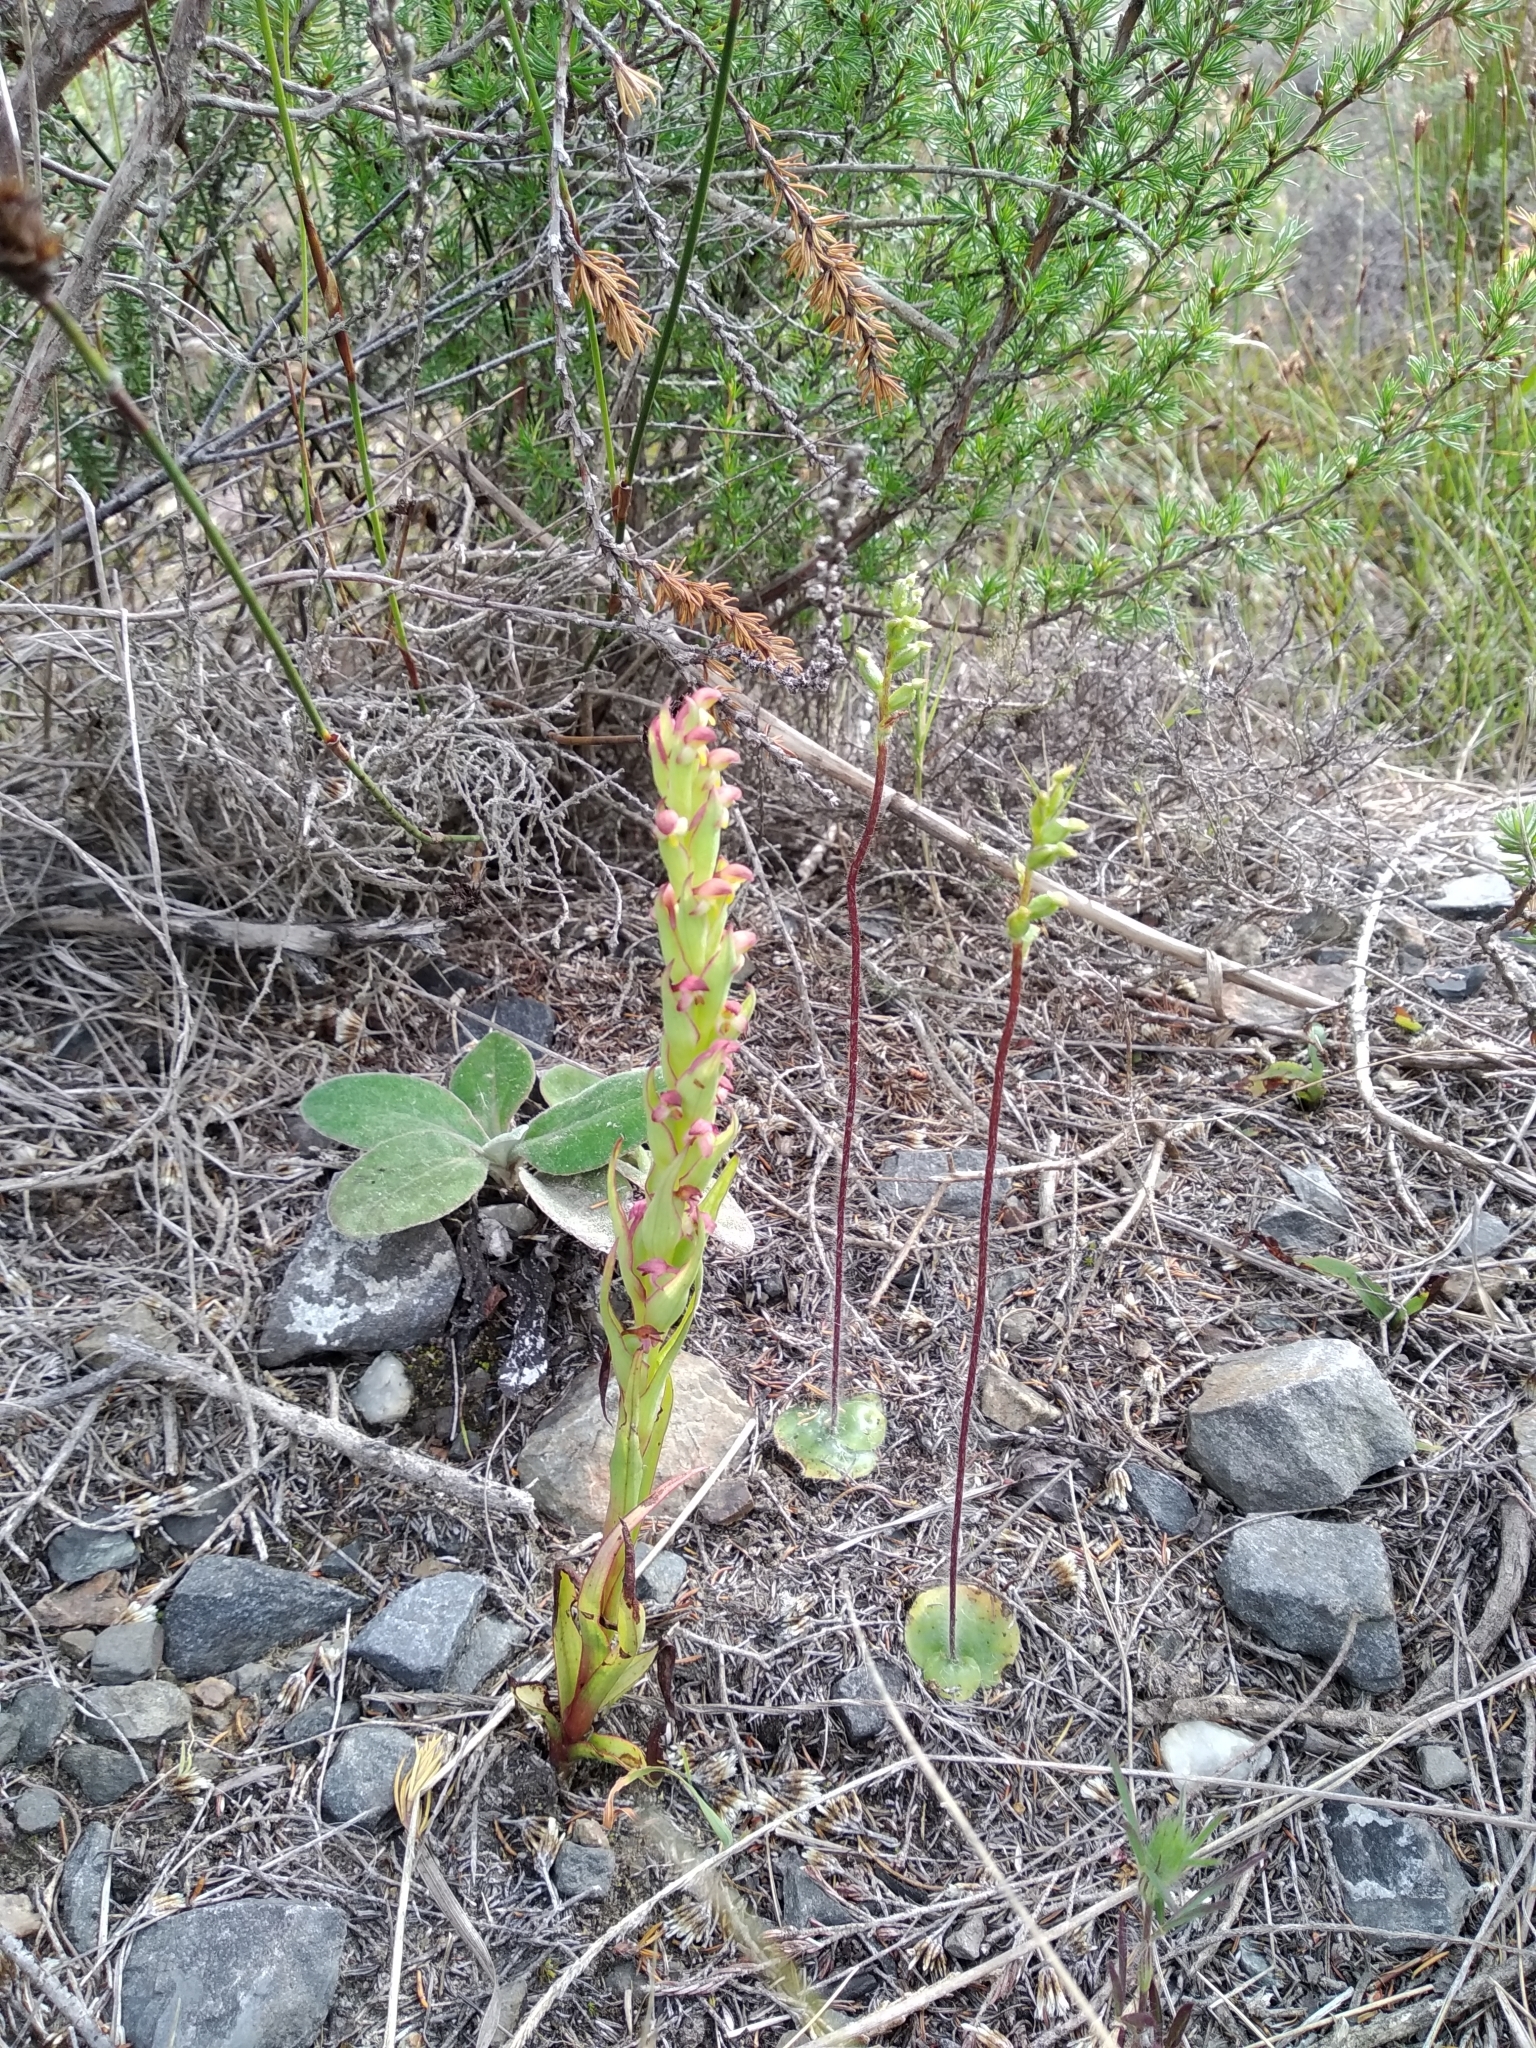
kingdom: Plantae
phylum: Tracheophyta
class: Liliopsida
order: Asparagales
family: Orchidaceae
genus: Disa
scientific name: Disa bracteata
